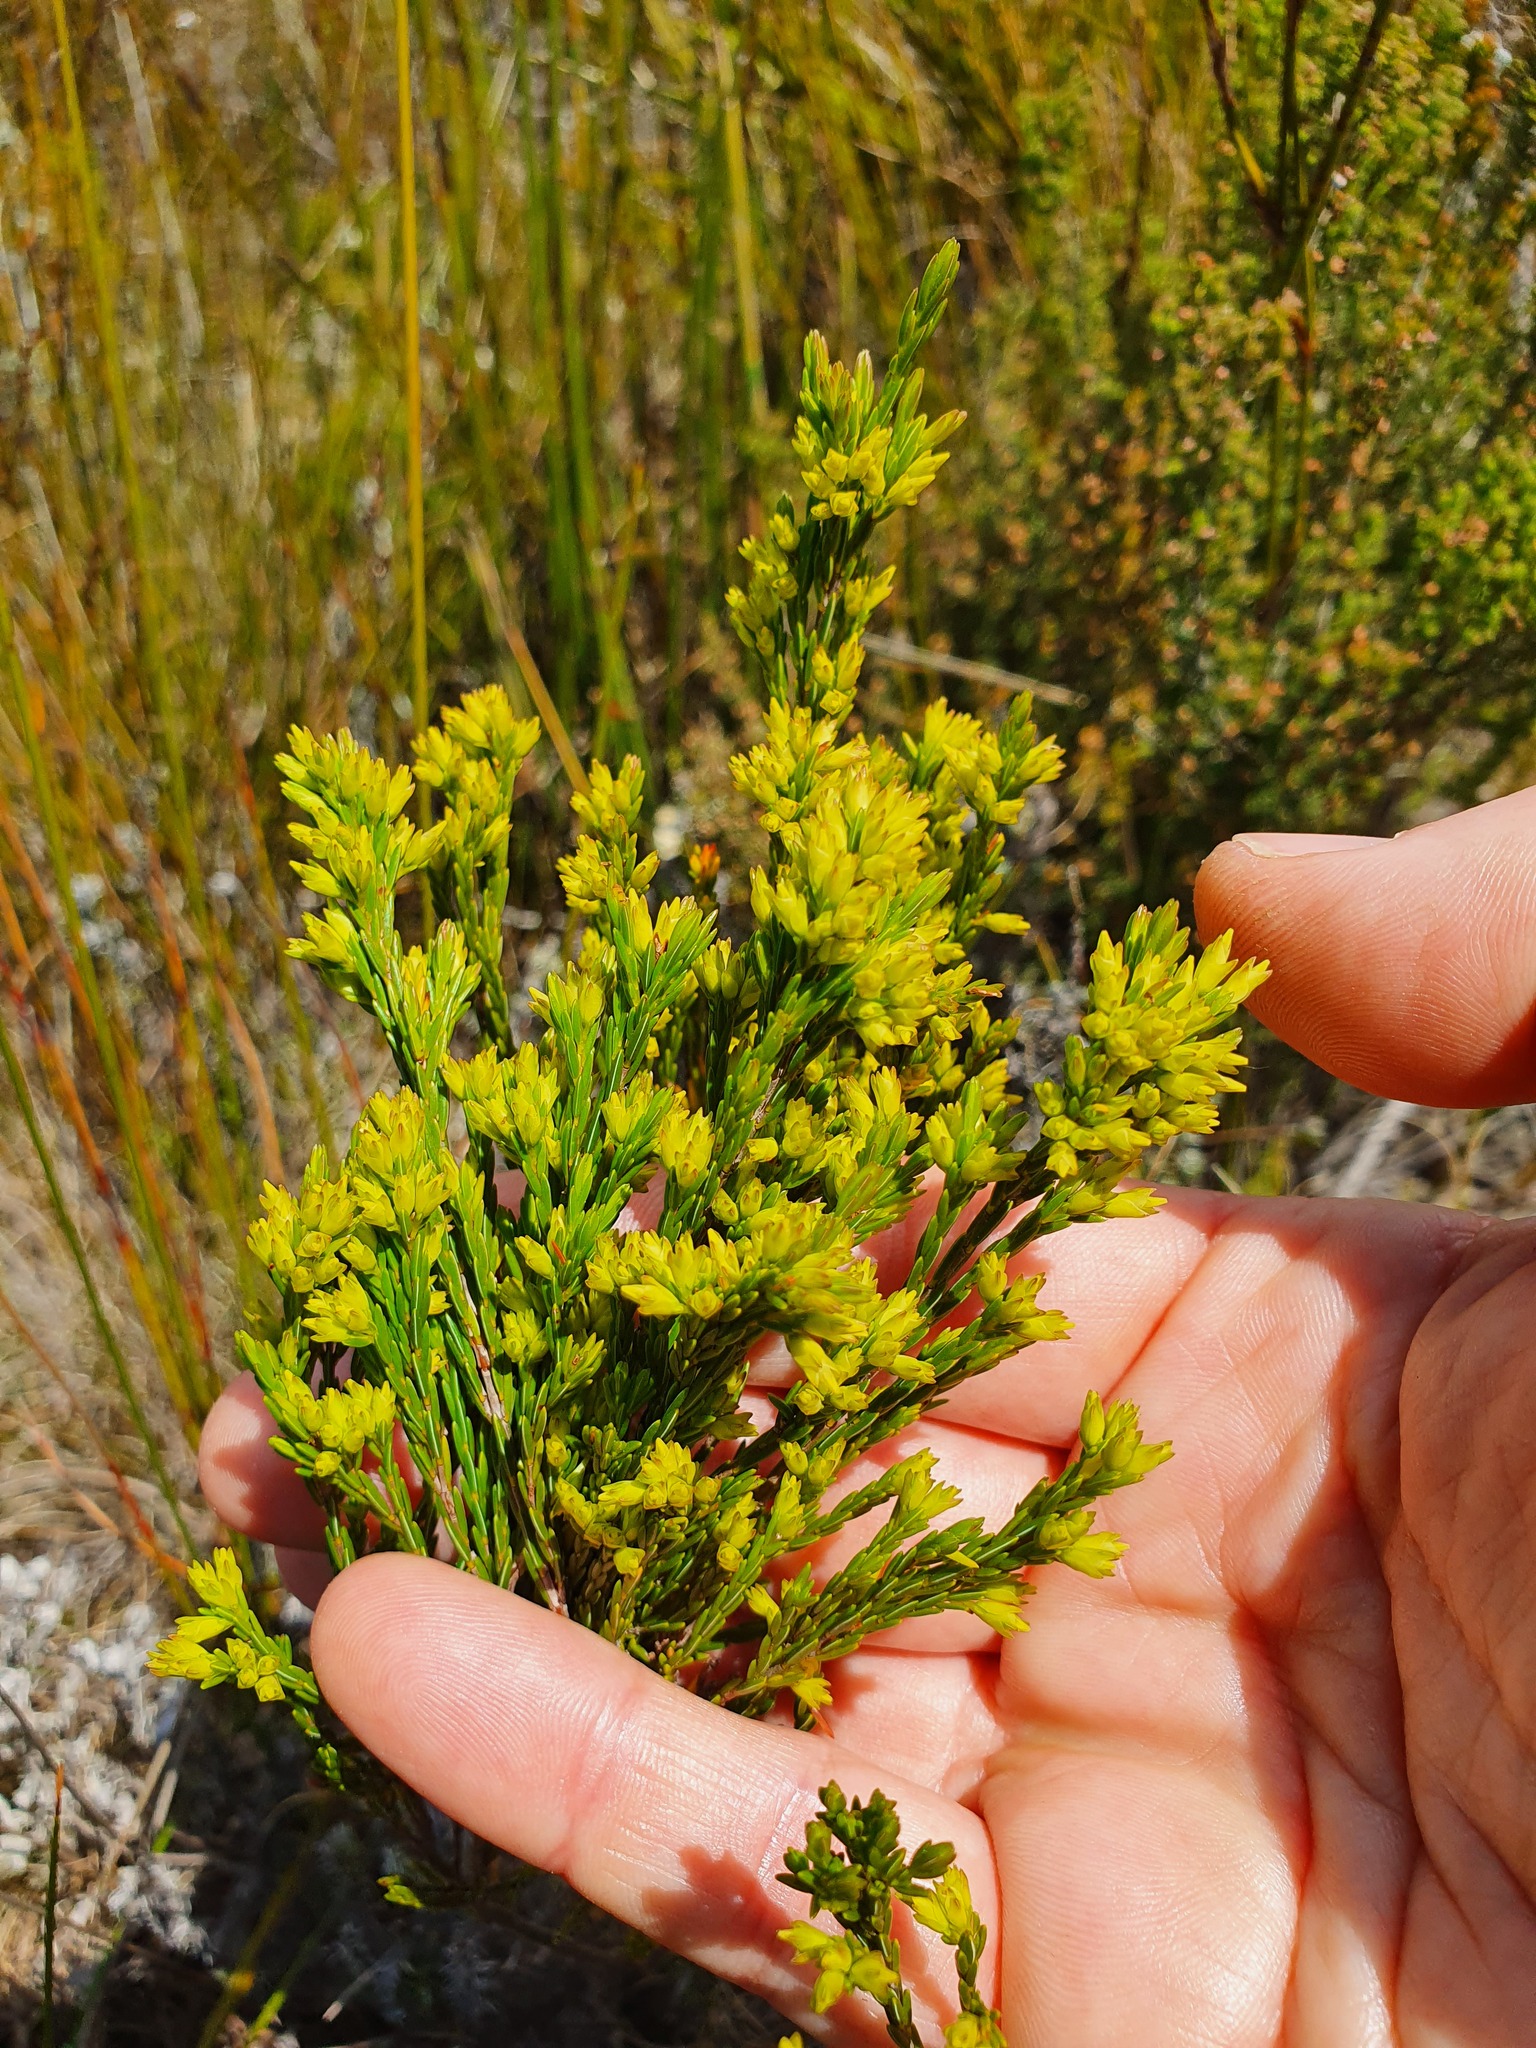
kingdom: Plantae
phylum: Tracheophyta
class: Magnoliopsida
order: Ericales
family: Ericaceae
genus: Erica
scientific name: Erica lutea
